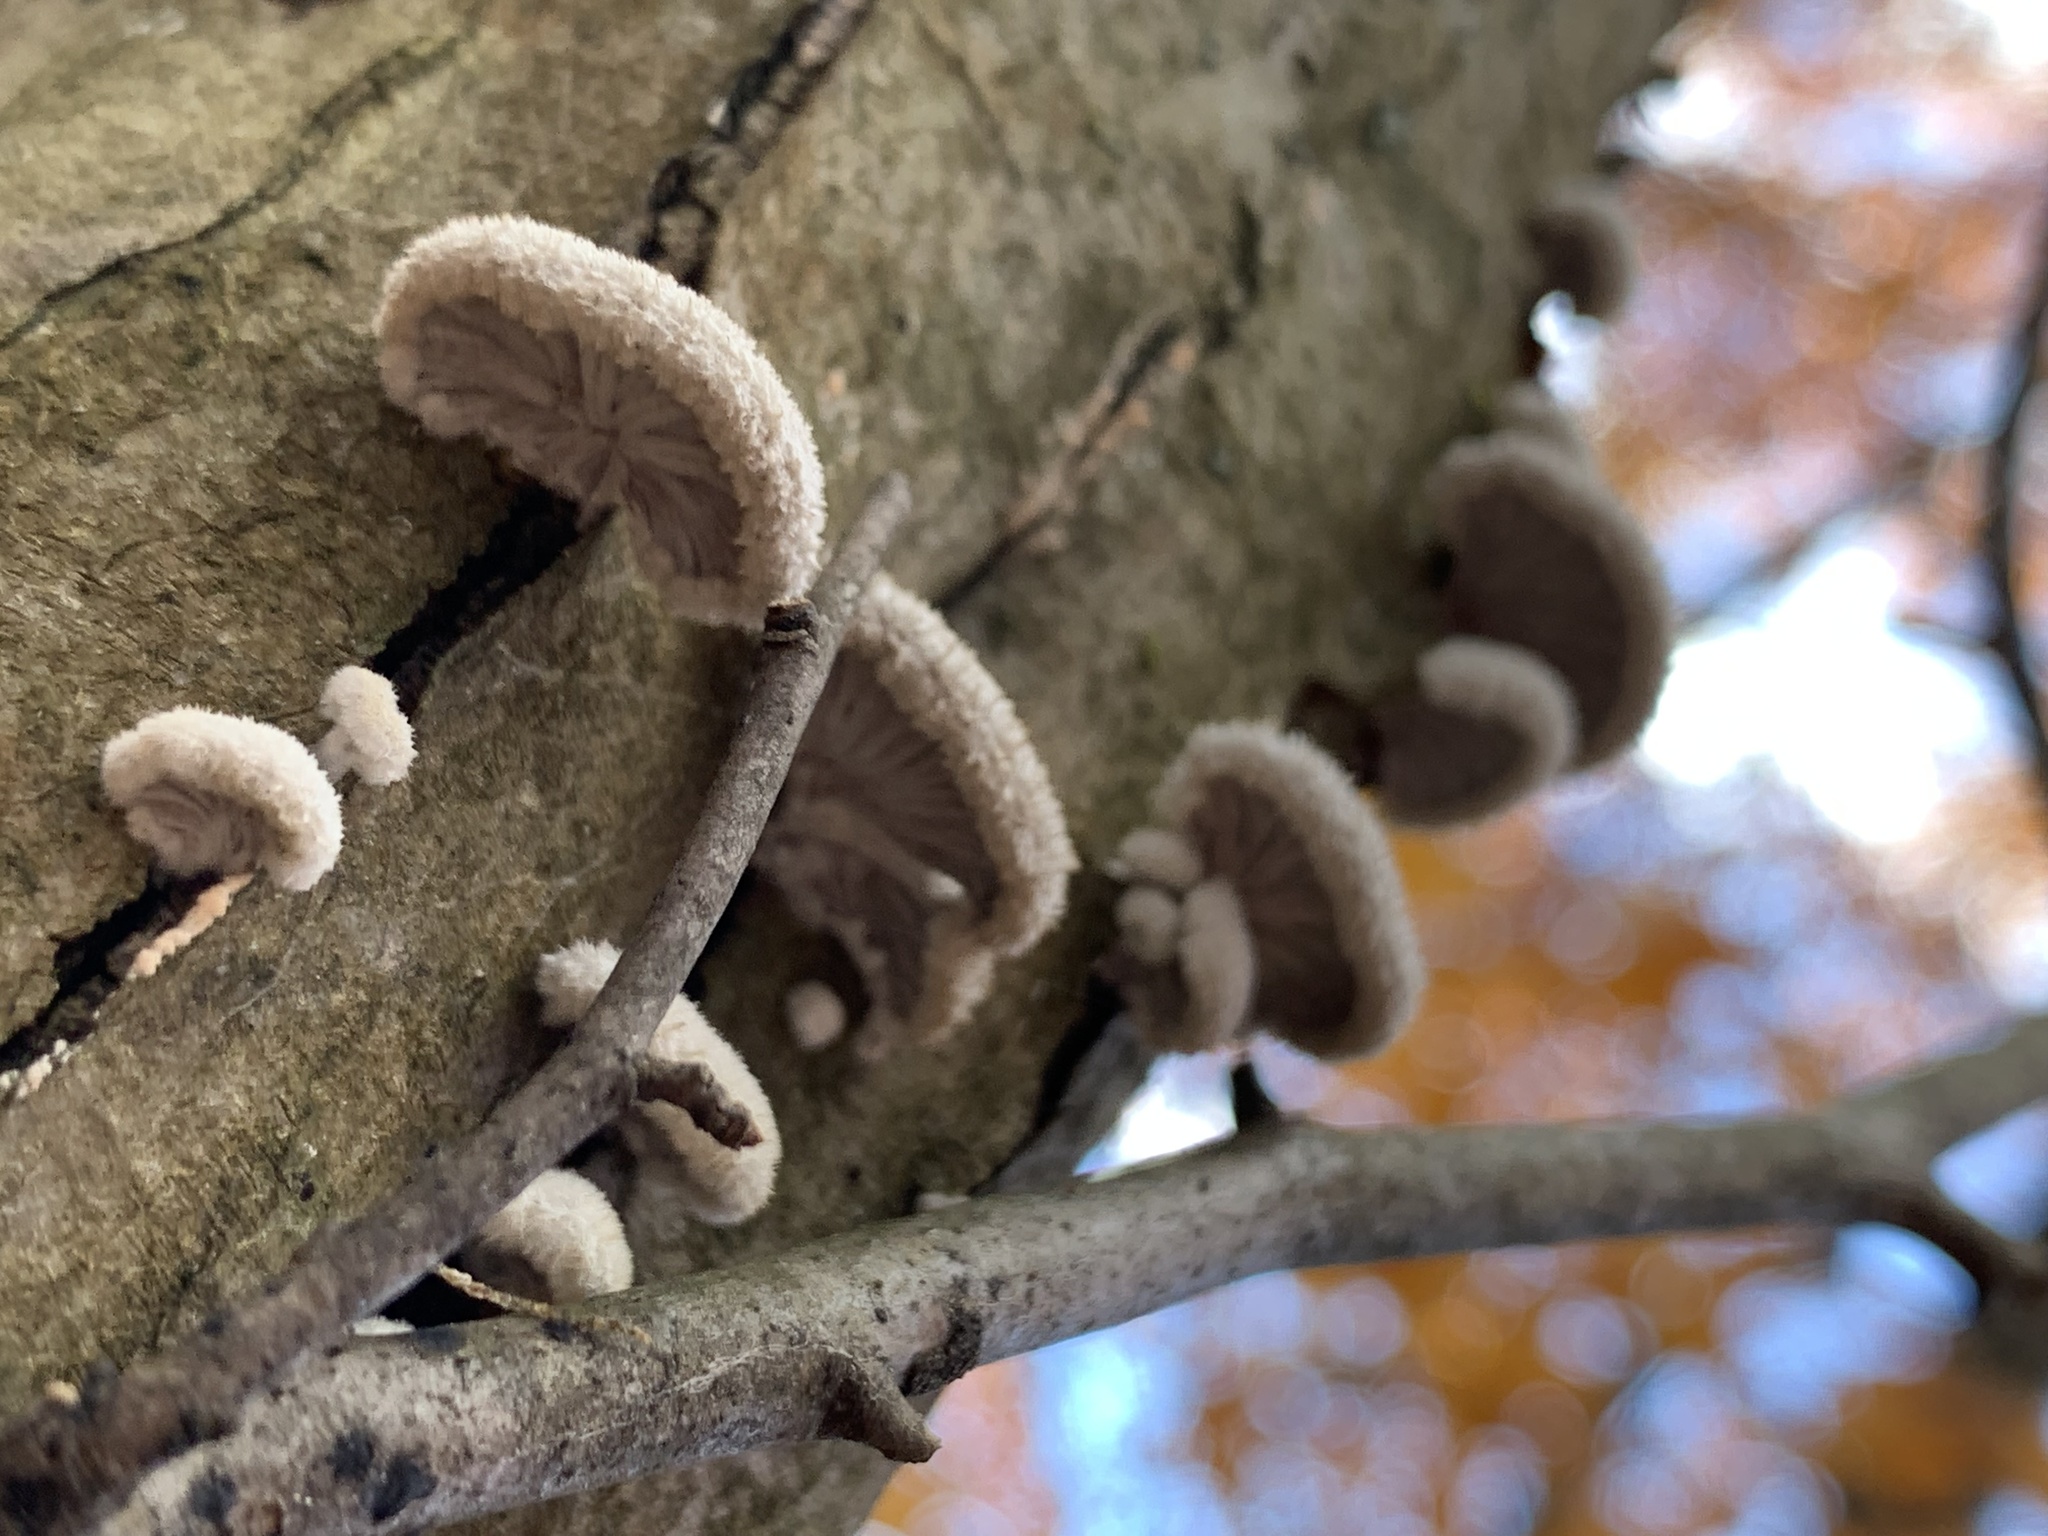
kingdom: Fungi
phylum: Basidiomycota
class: Agaricomycetes
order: Agaricales
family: Schizophyllaceae
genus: Schizophyllum
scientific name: Schizophyllum commune
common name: Common porecrust
